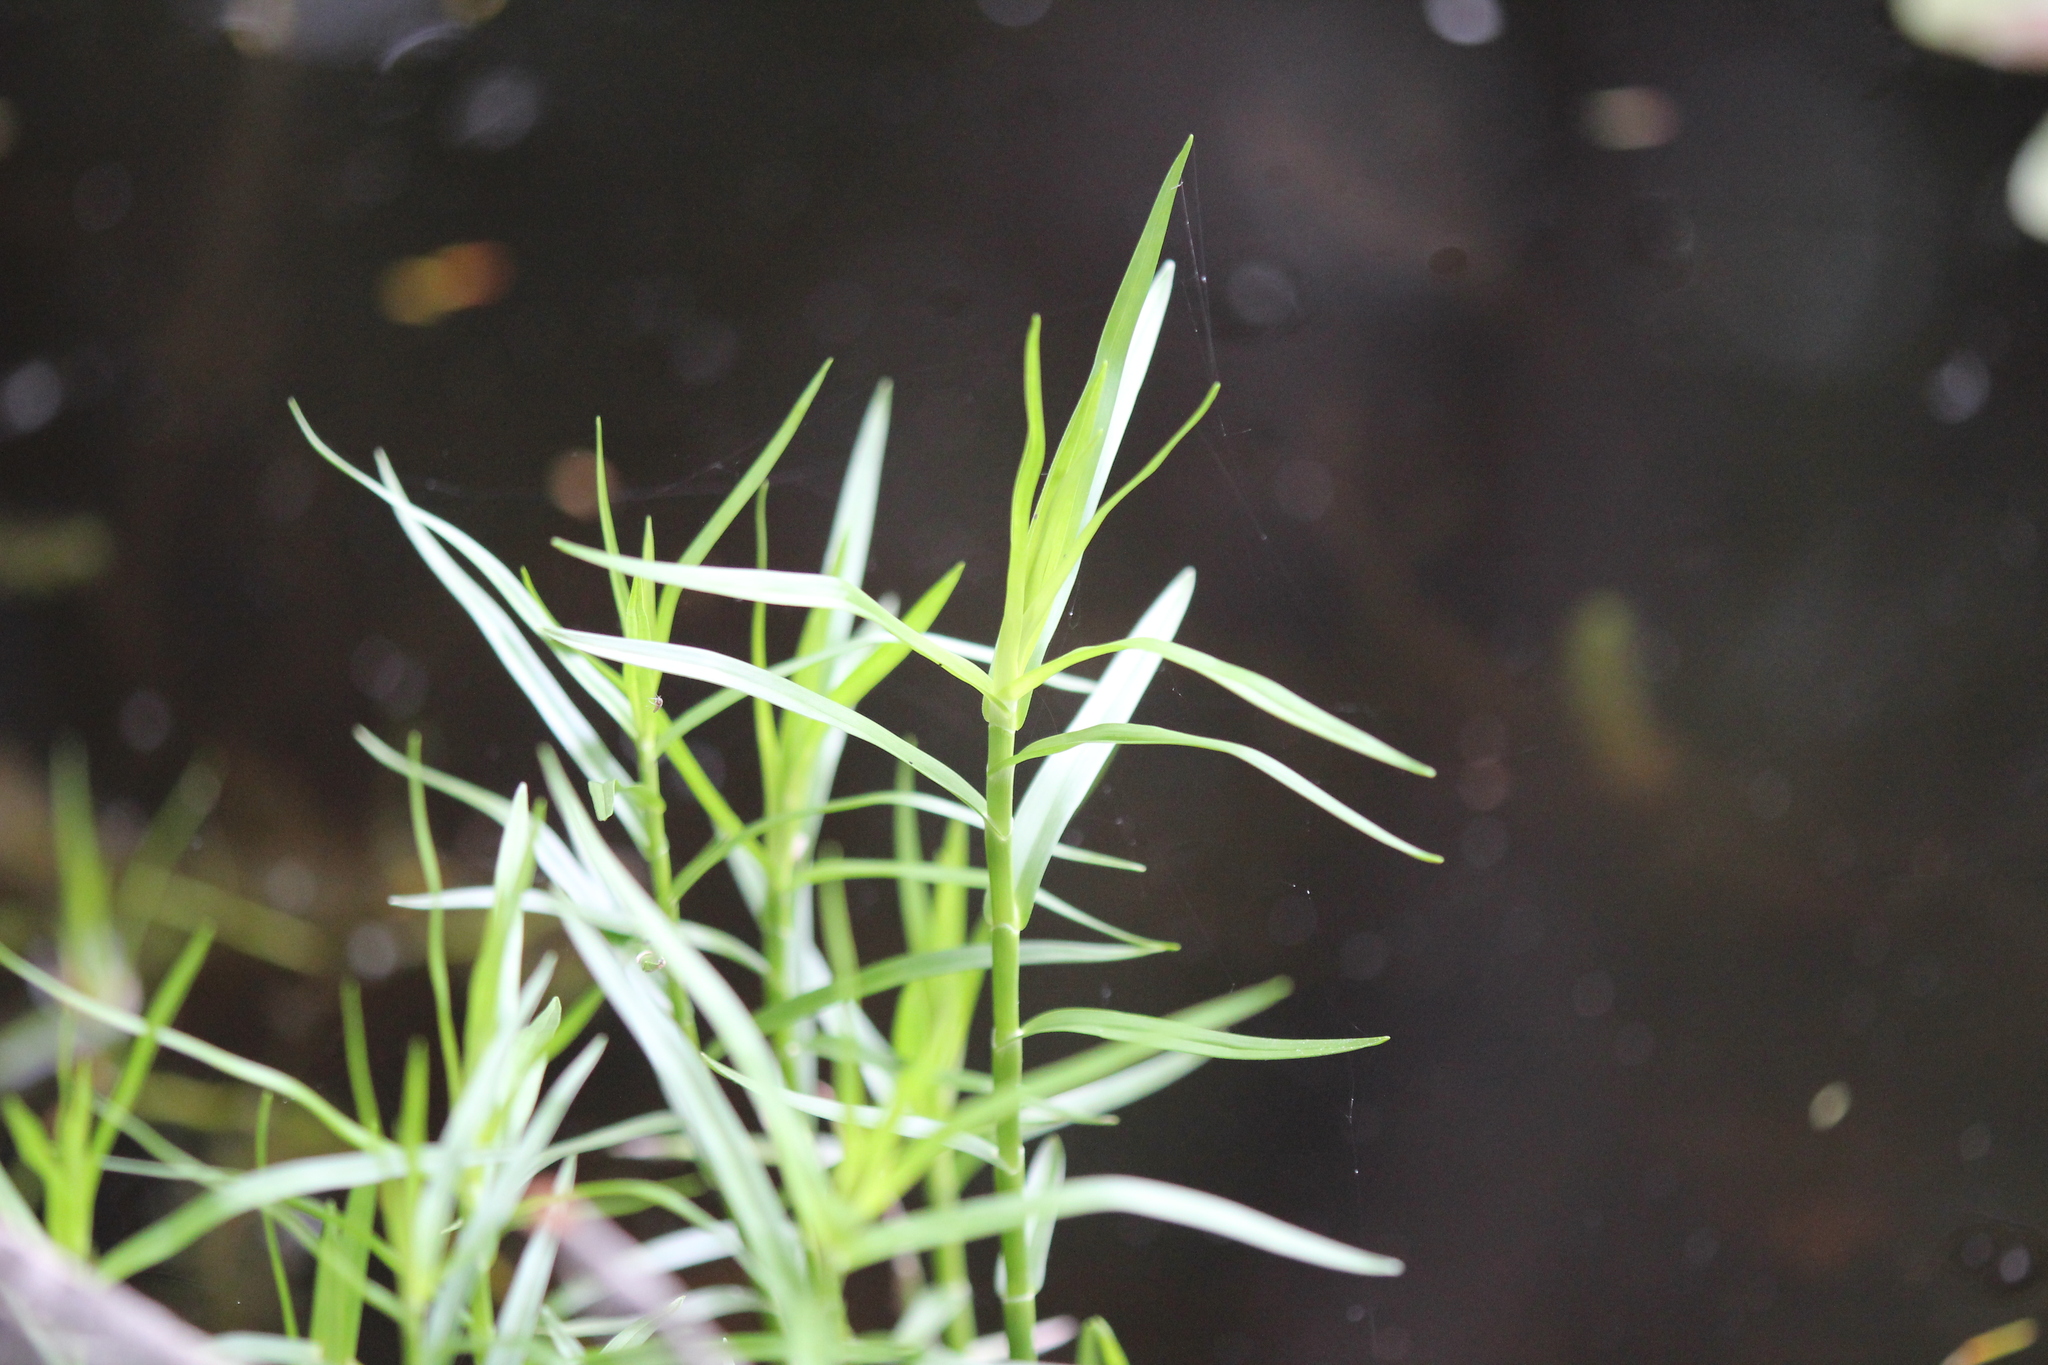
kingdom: Plantae
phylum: Tracheophyta
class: Liliopsida
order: Poales
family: Cyperaceae
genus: Dulichium
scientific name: Dulichium arundinaceum
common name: Three-way sedge
